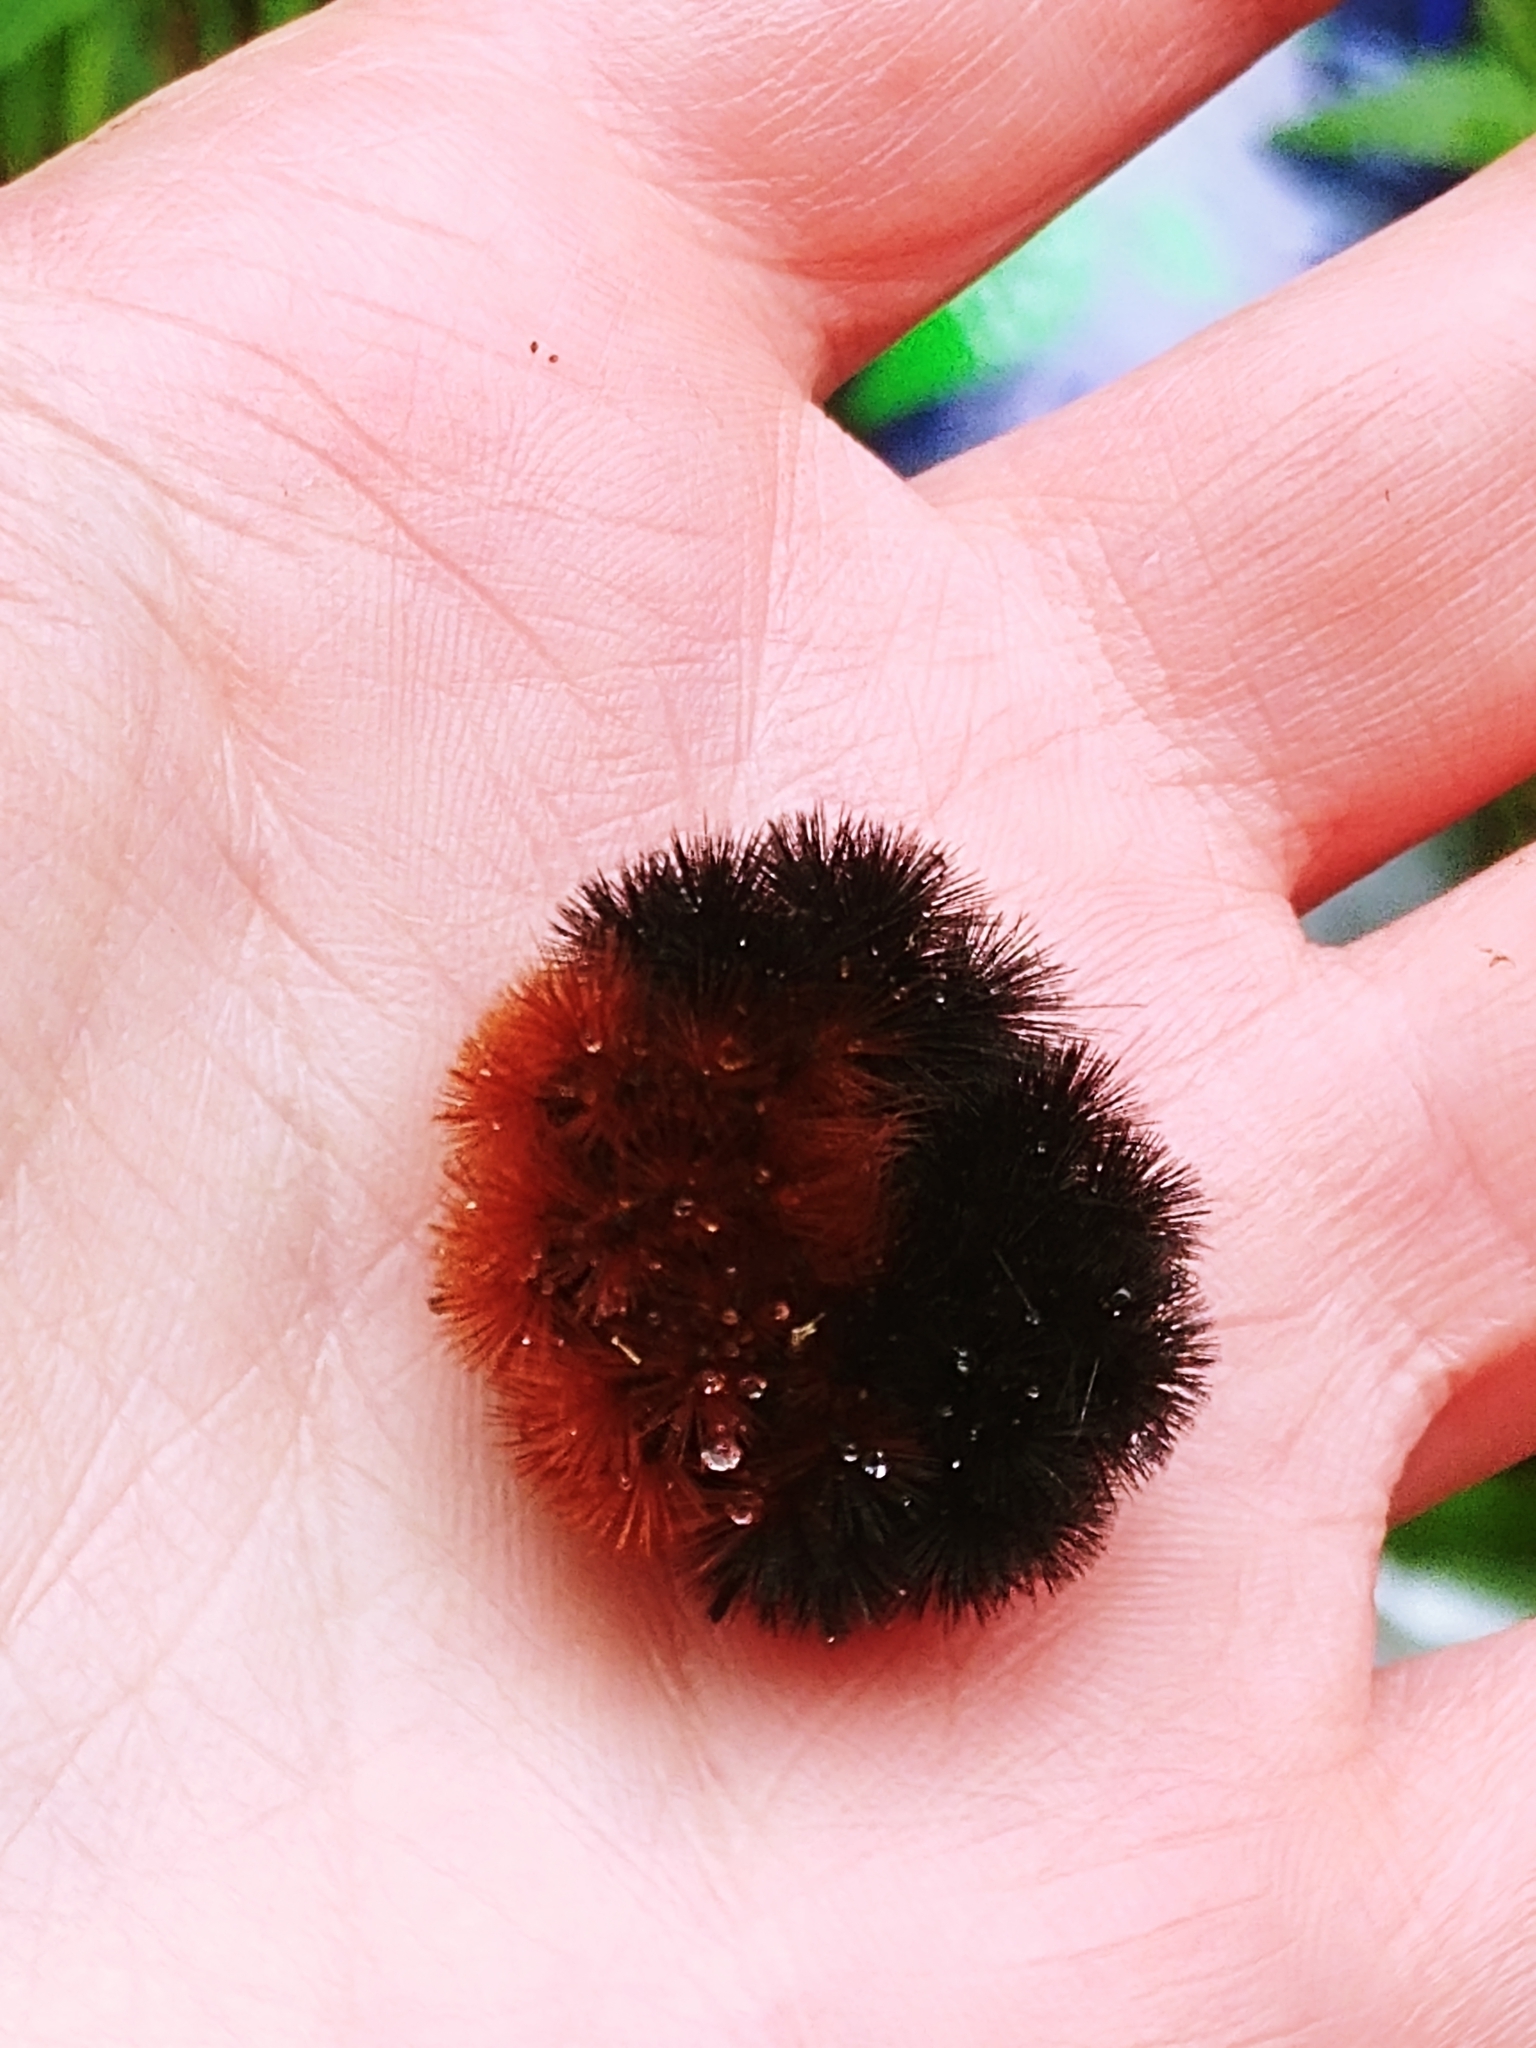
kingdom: Animalia
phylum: Arthropoda
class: Insecta
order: Lepidoptera
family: Erebidae
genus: Pyrrharctia
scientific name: Pyrrharctia isabella
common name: Isabella tiger moth
